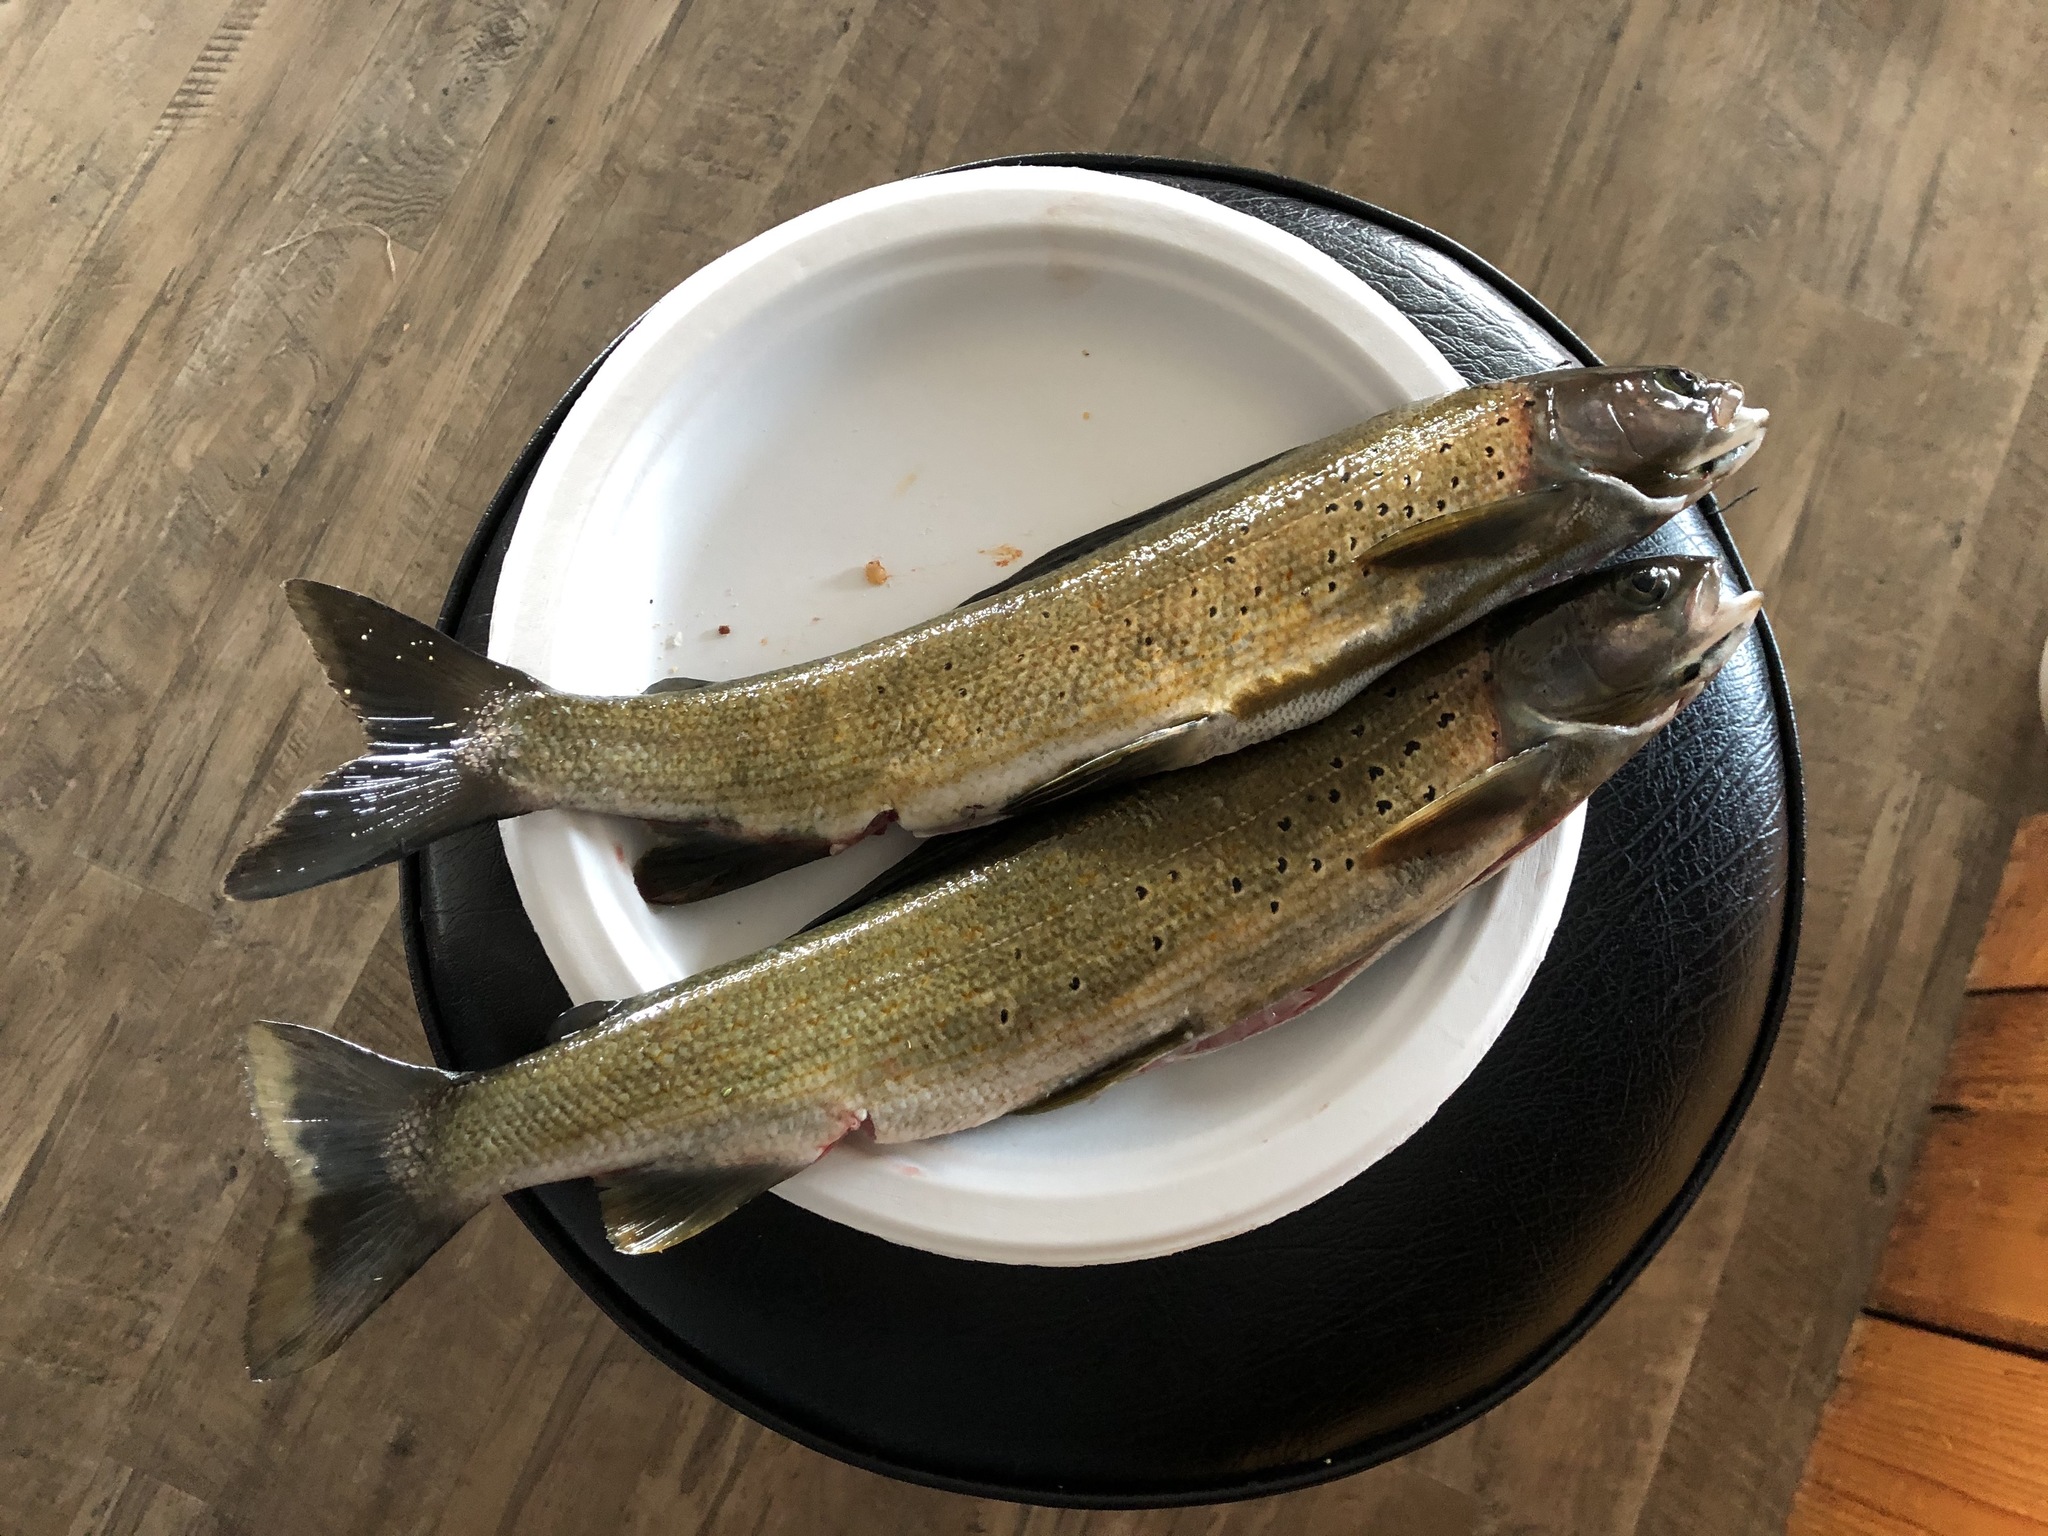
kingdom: Animalia
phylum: Chordata
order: Salmoniformes
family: Salmonidae
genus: Thymallus
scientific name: Thymallus arcticus
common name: Arctic grayling
